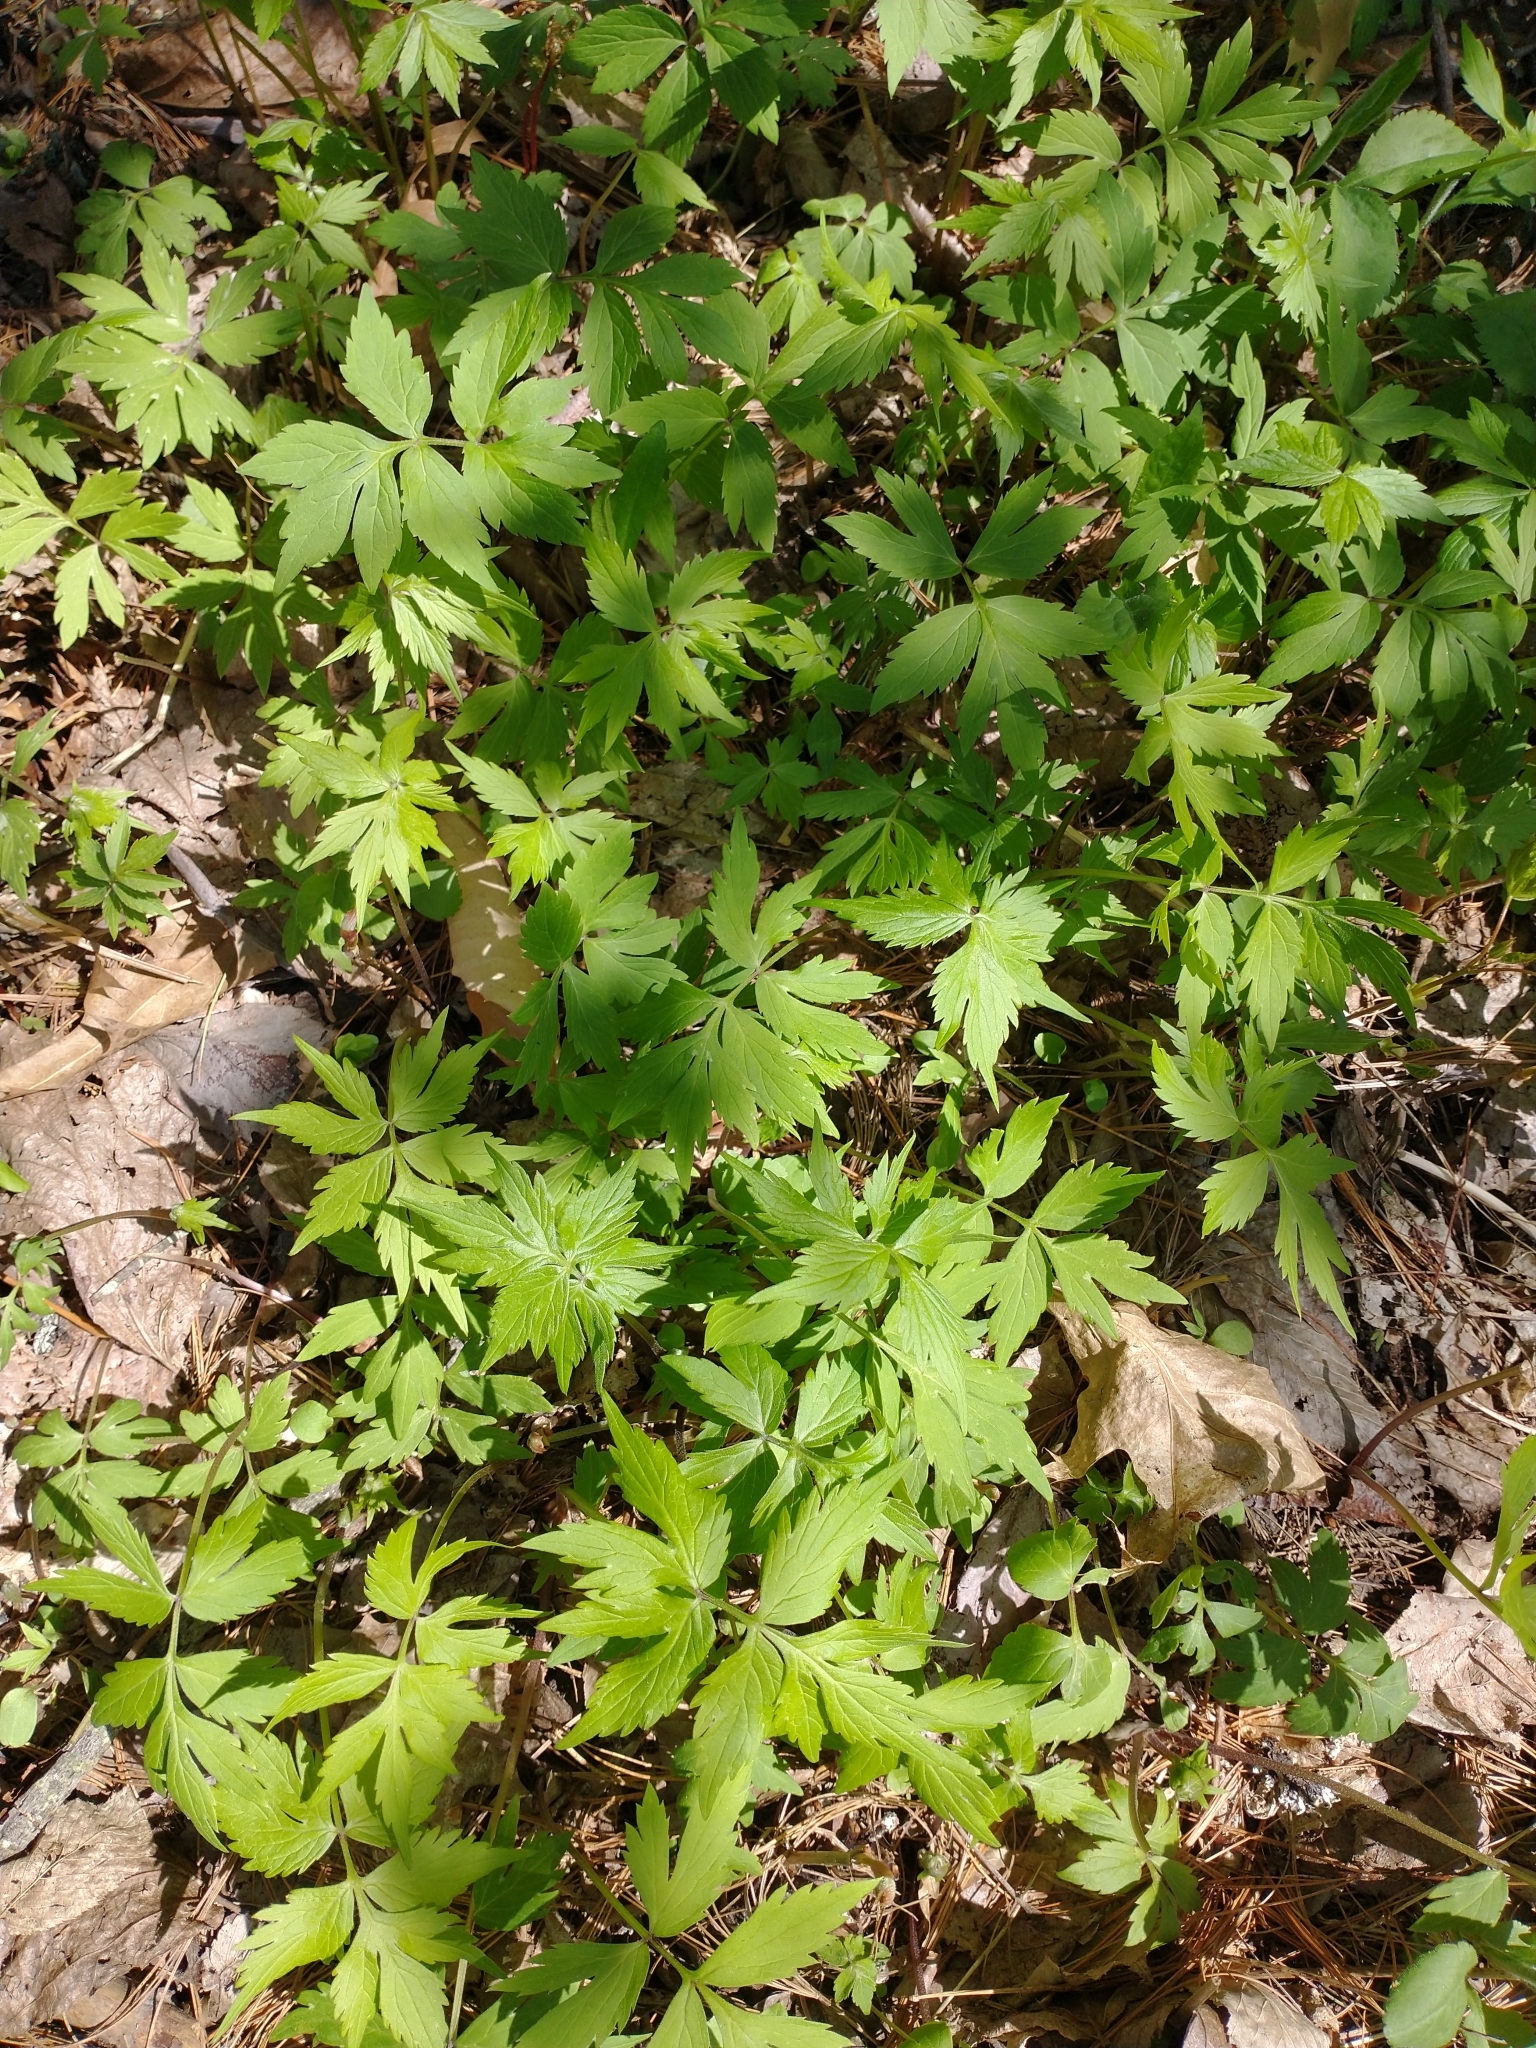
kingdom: Plantae
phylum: Tracheophyta
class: Magnoliopsida
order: Boraginales
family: Hydrophyllaceae
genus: Hydrophyllum
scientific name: Hydrophyllum virginianum
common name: Virginia waterleaf
